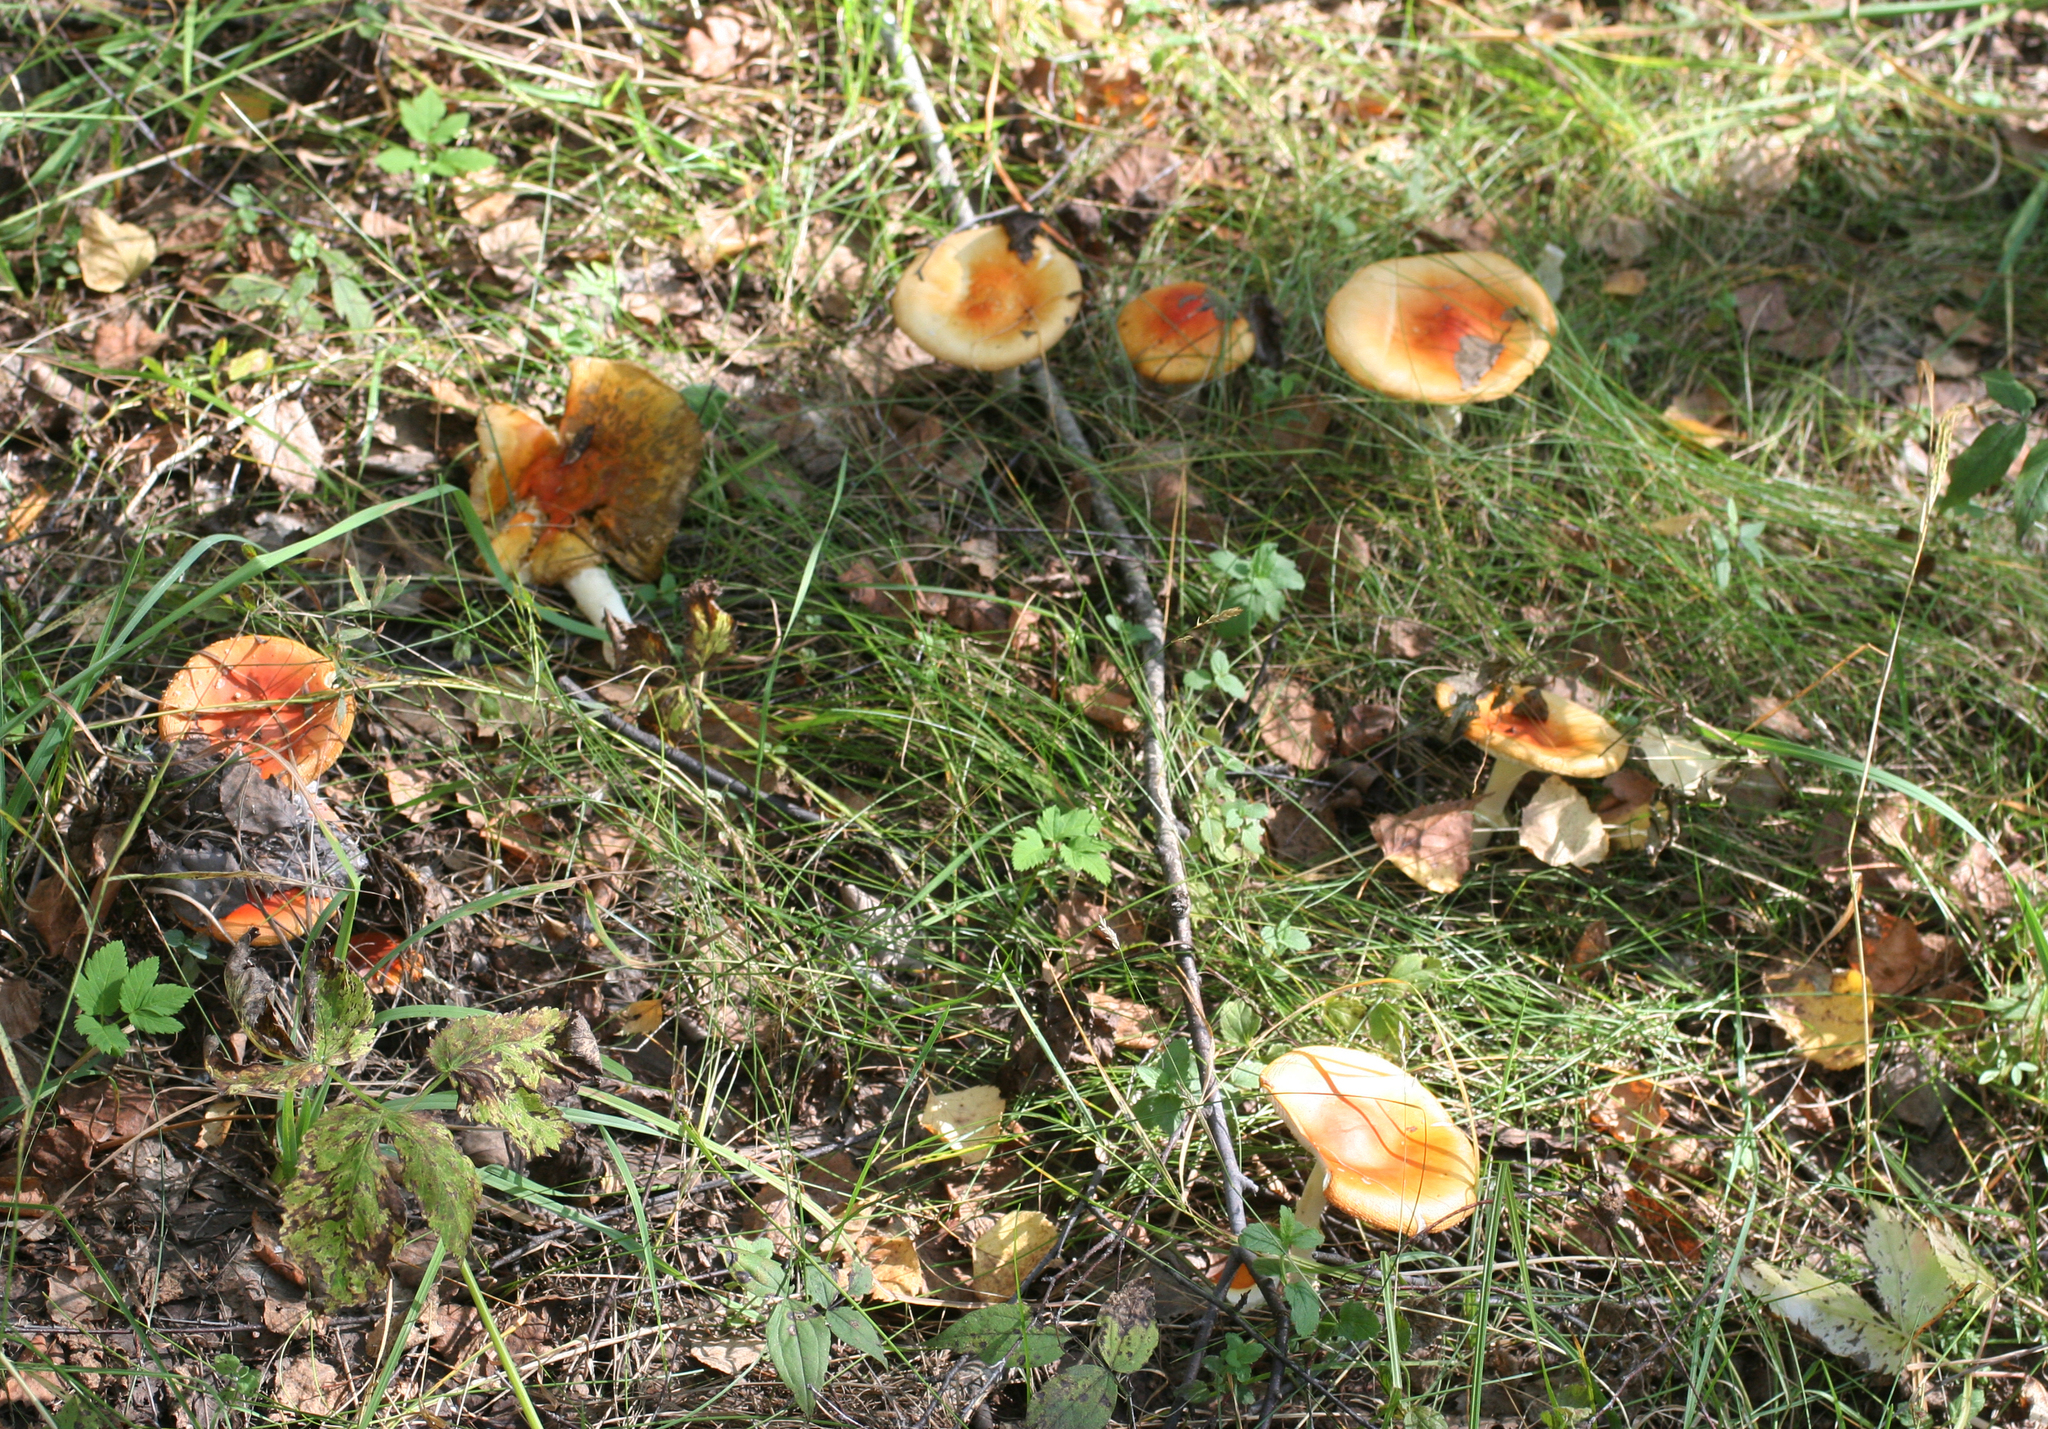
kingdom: Fungi
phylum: Basidiomycota
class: Agaricomycetes
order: Agaricales
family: Amanitaceae
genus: Amanita
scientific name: Amanita muscaria
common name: Fly agaric
